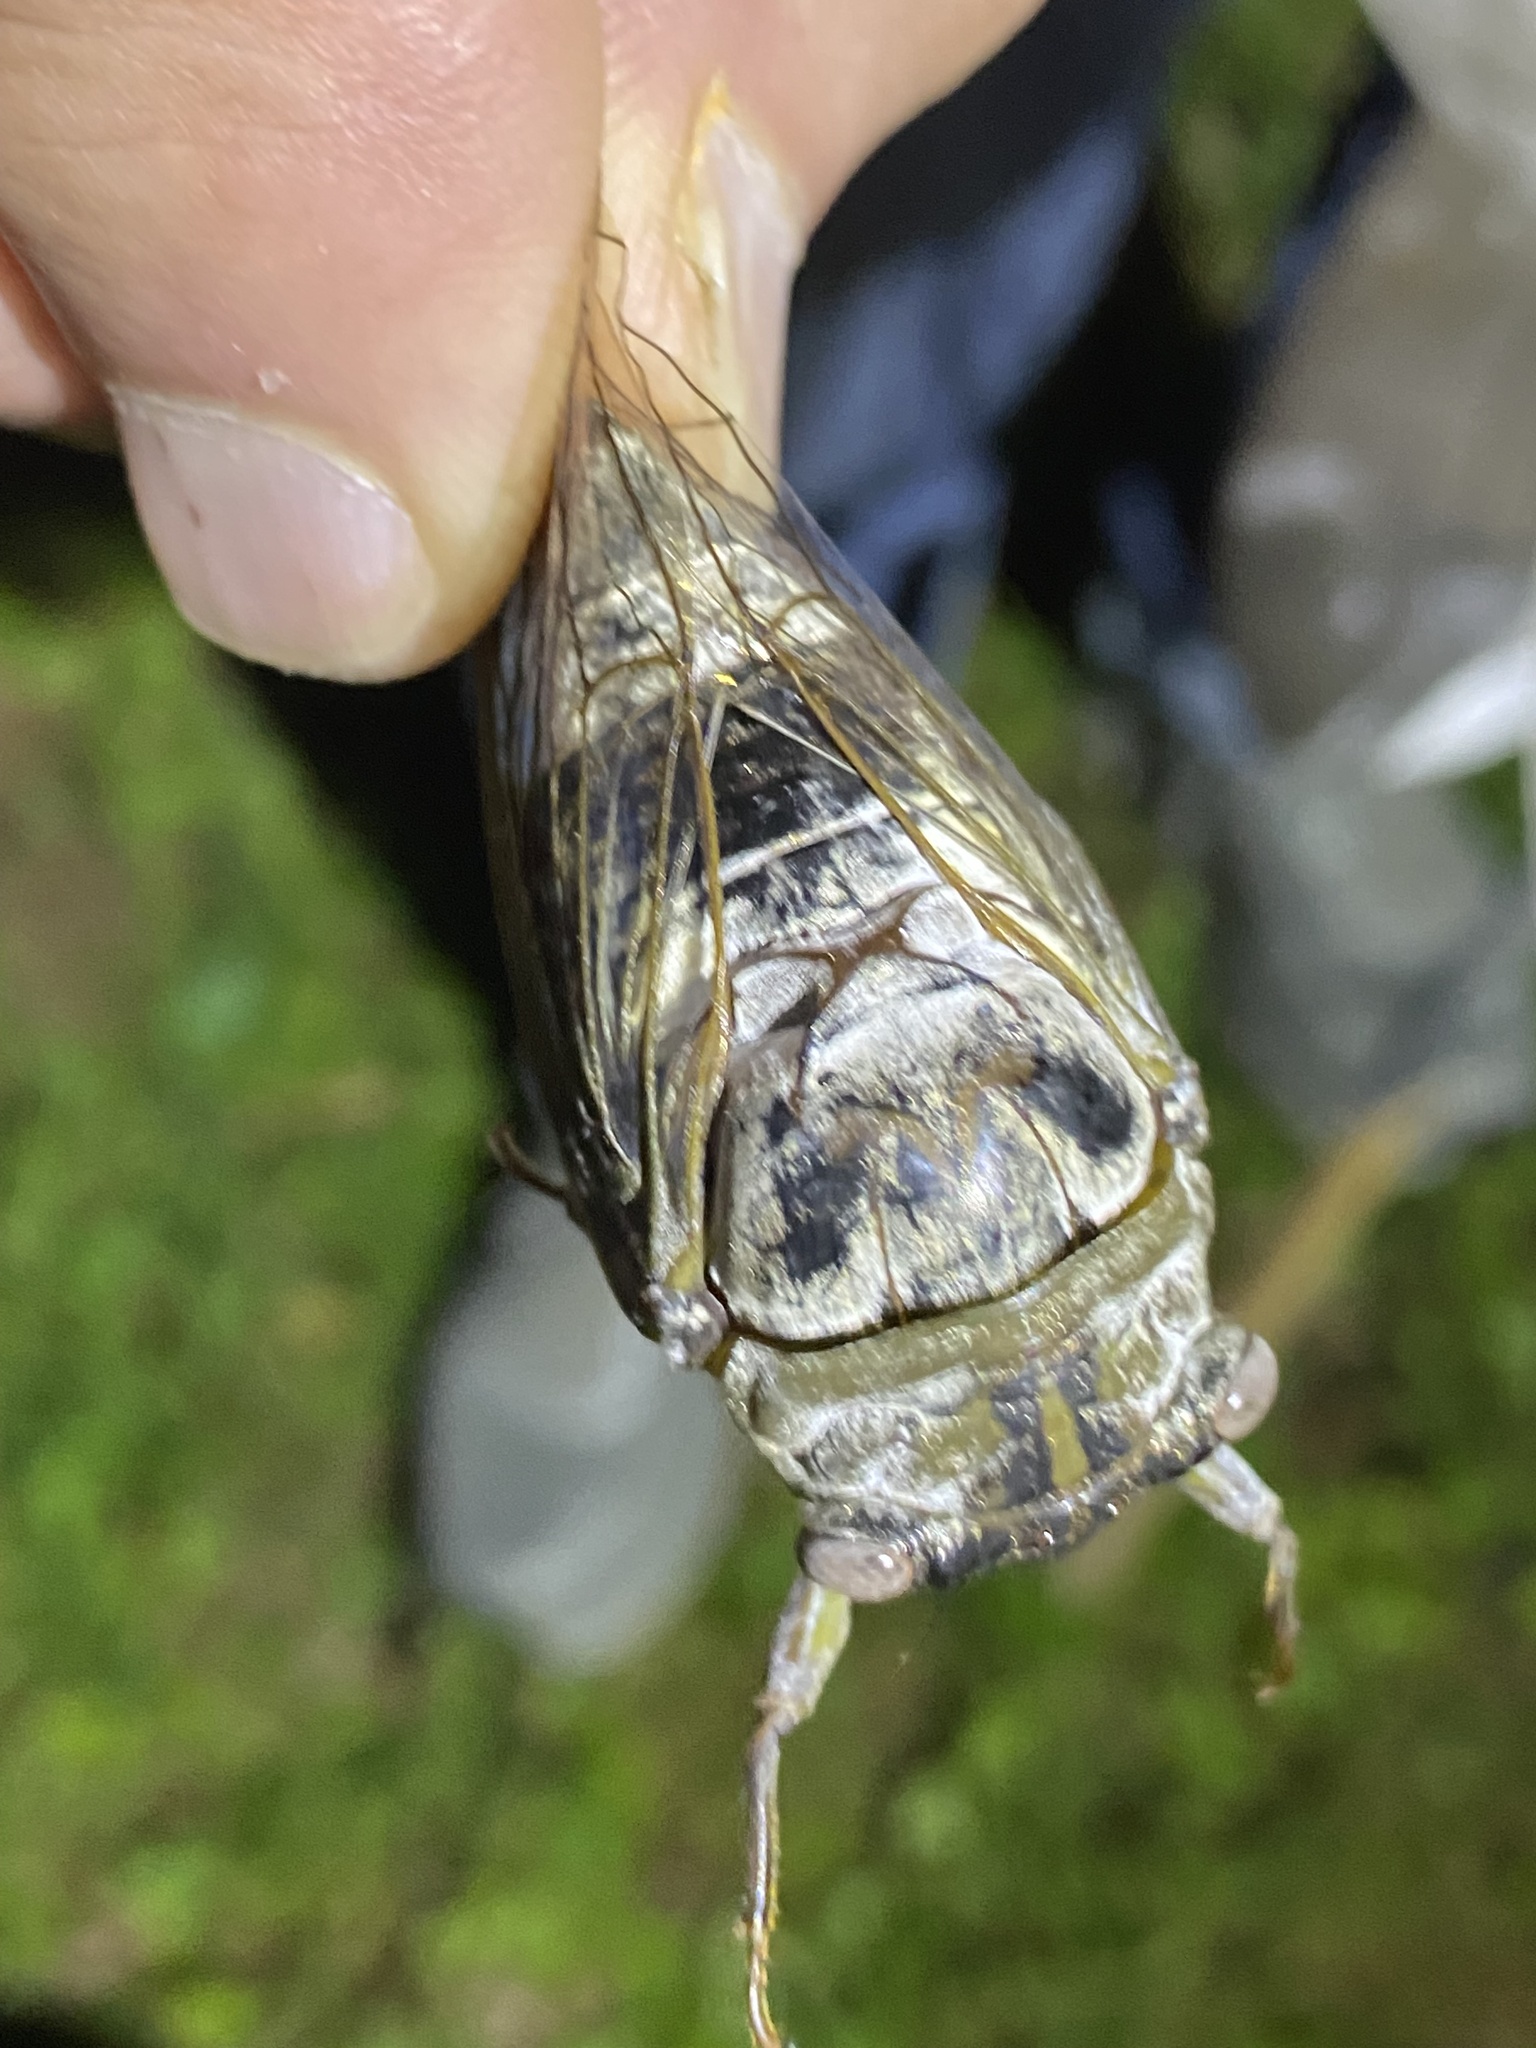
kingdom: Animalia
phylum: Arthropoda
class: Insecta
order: Hemiptera
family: Cicadidae
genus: Diceroprocta
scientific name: Diceroprocta grossa
